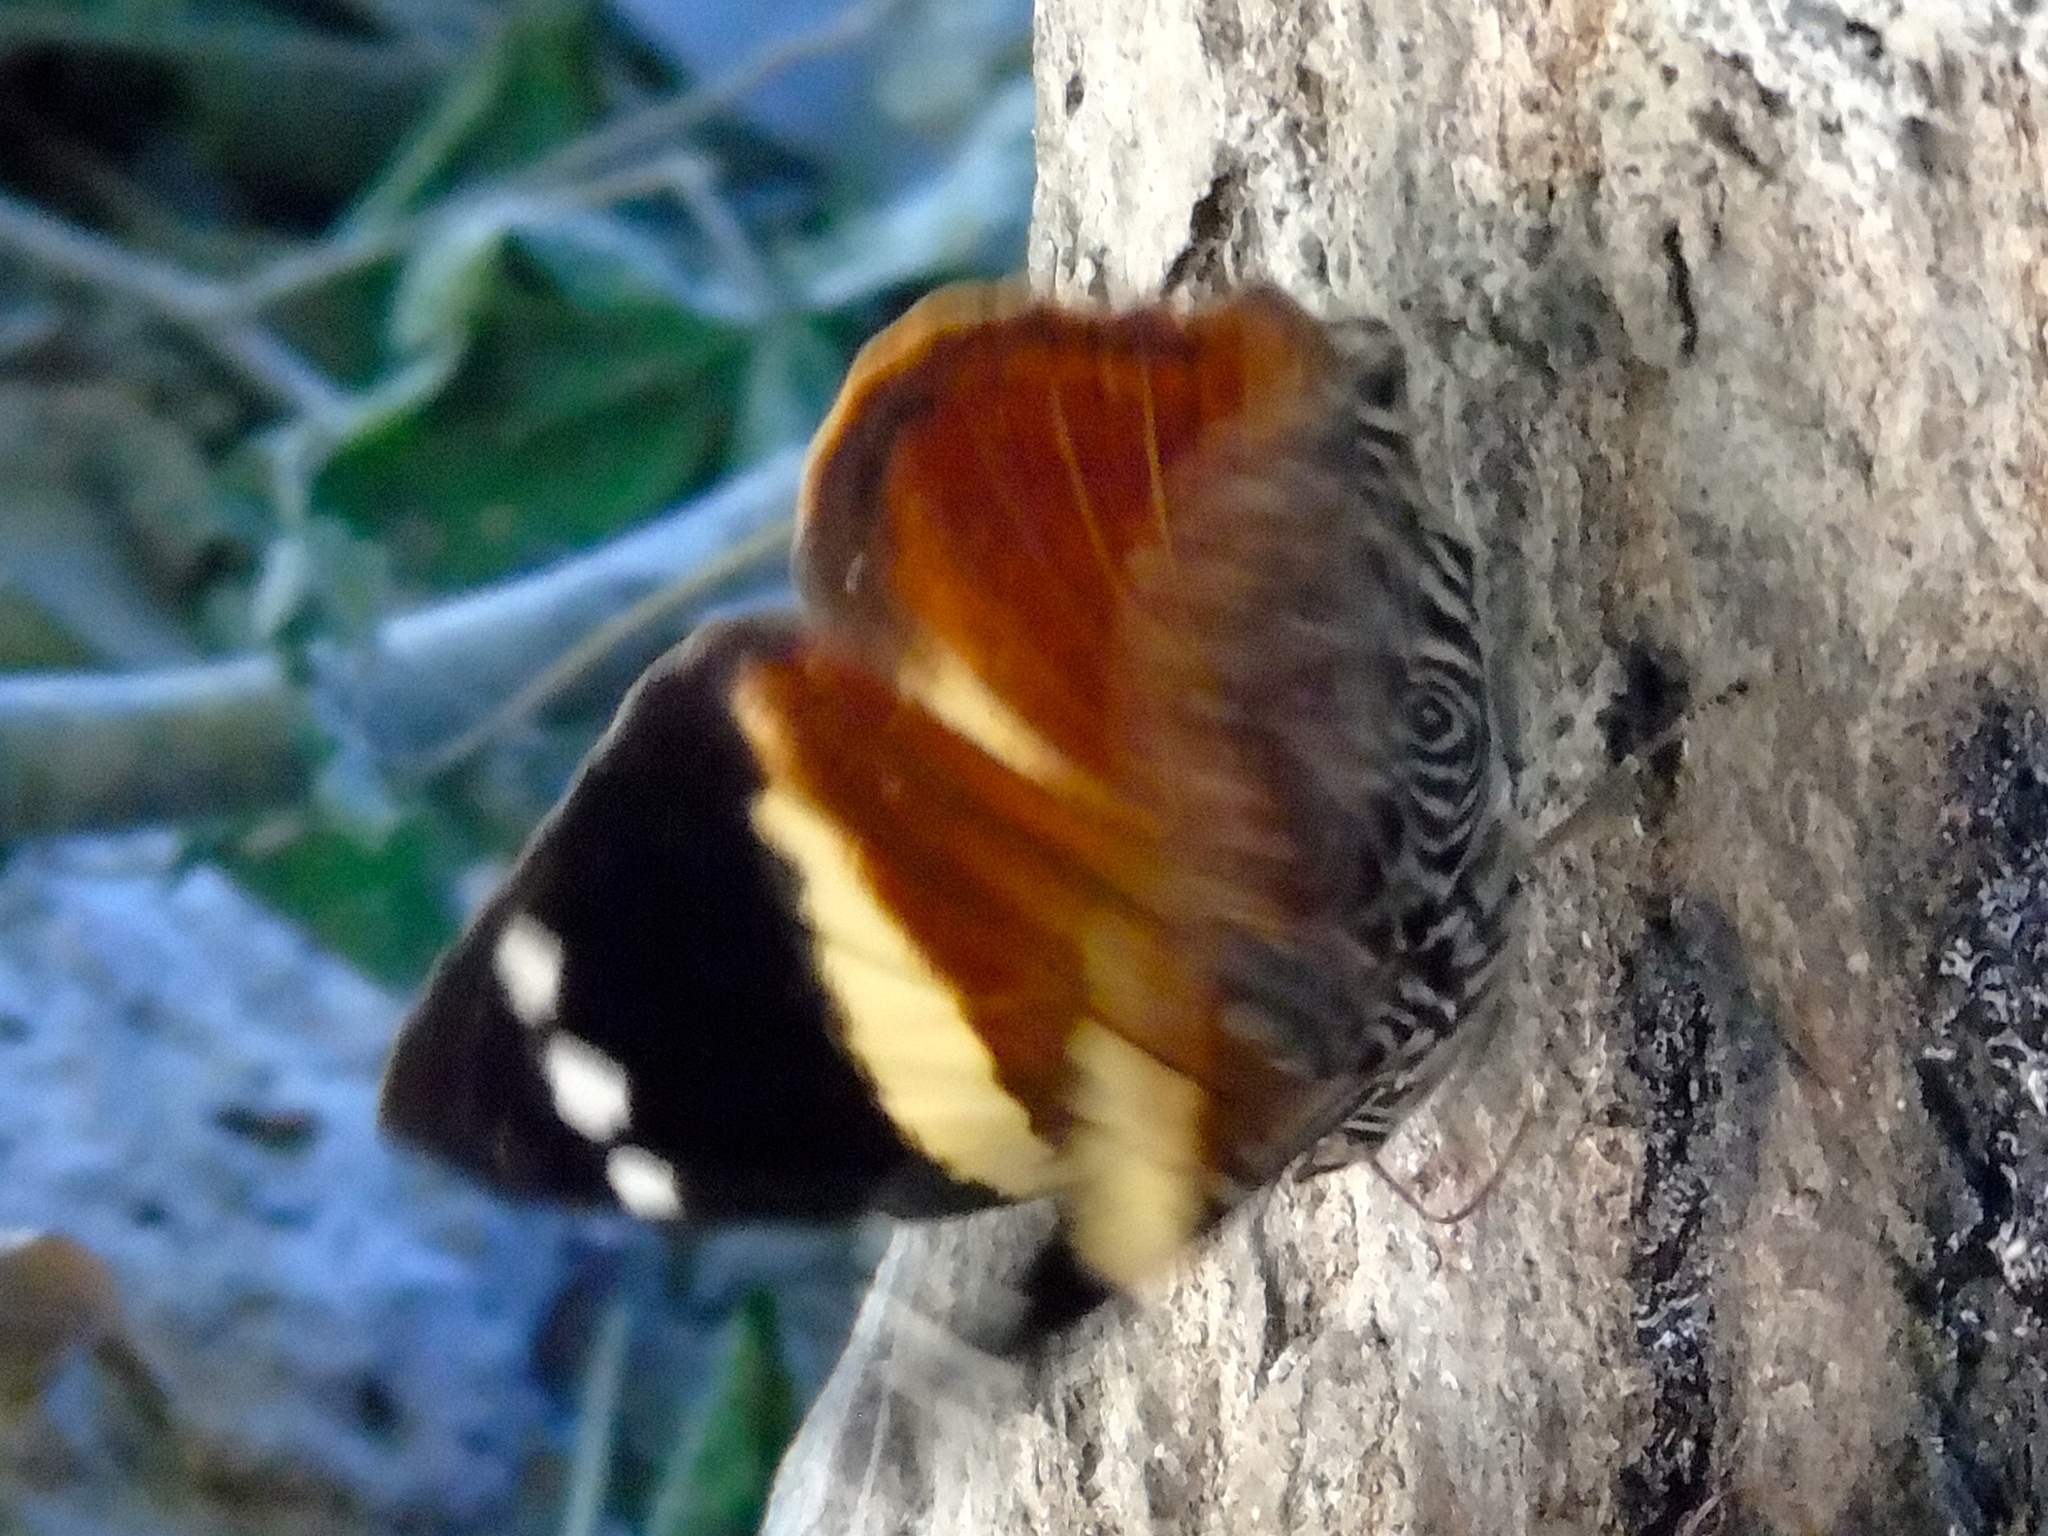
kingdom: Animalia
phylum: Arthropoda
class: Insecta
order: Lepidoptera
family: Nymphalidae
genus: Smyrna
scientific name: Smyrna blomfildia
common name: Blomfild's beauty
